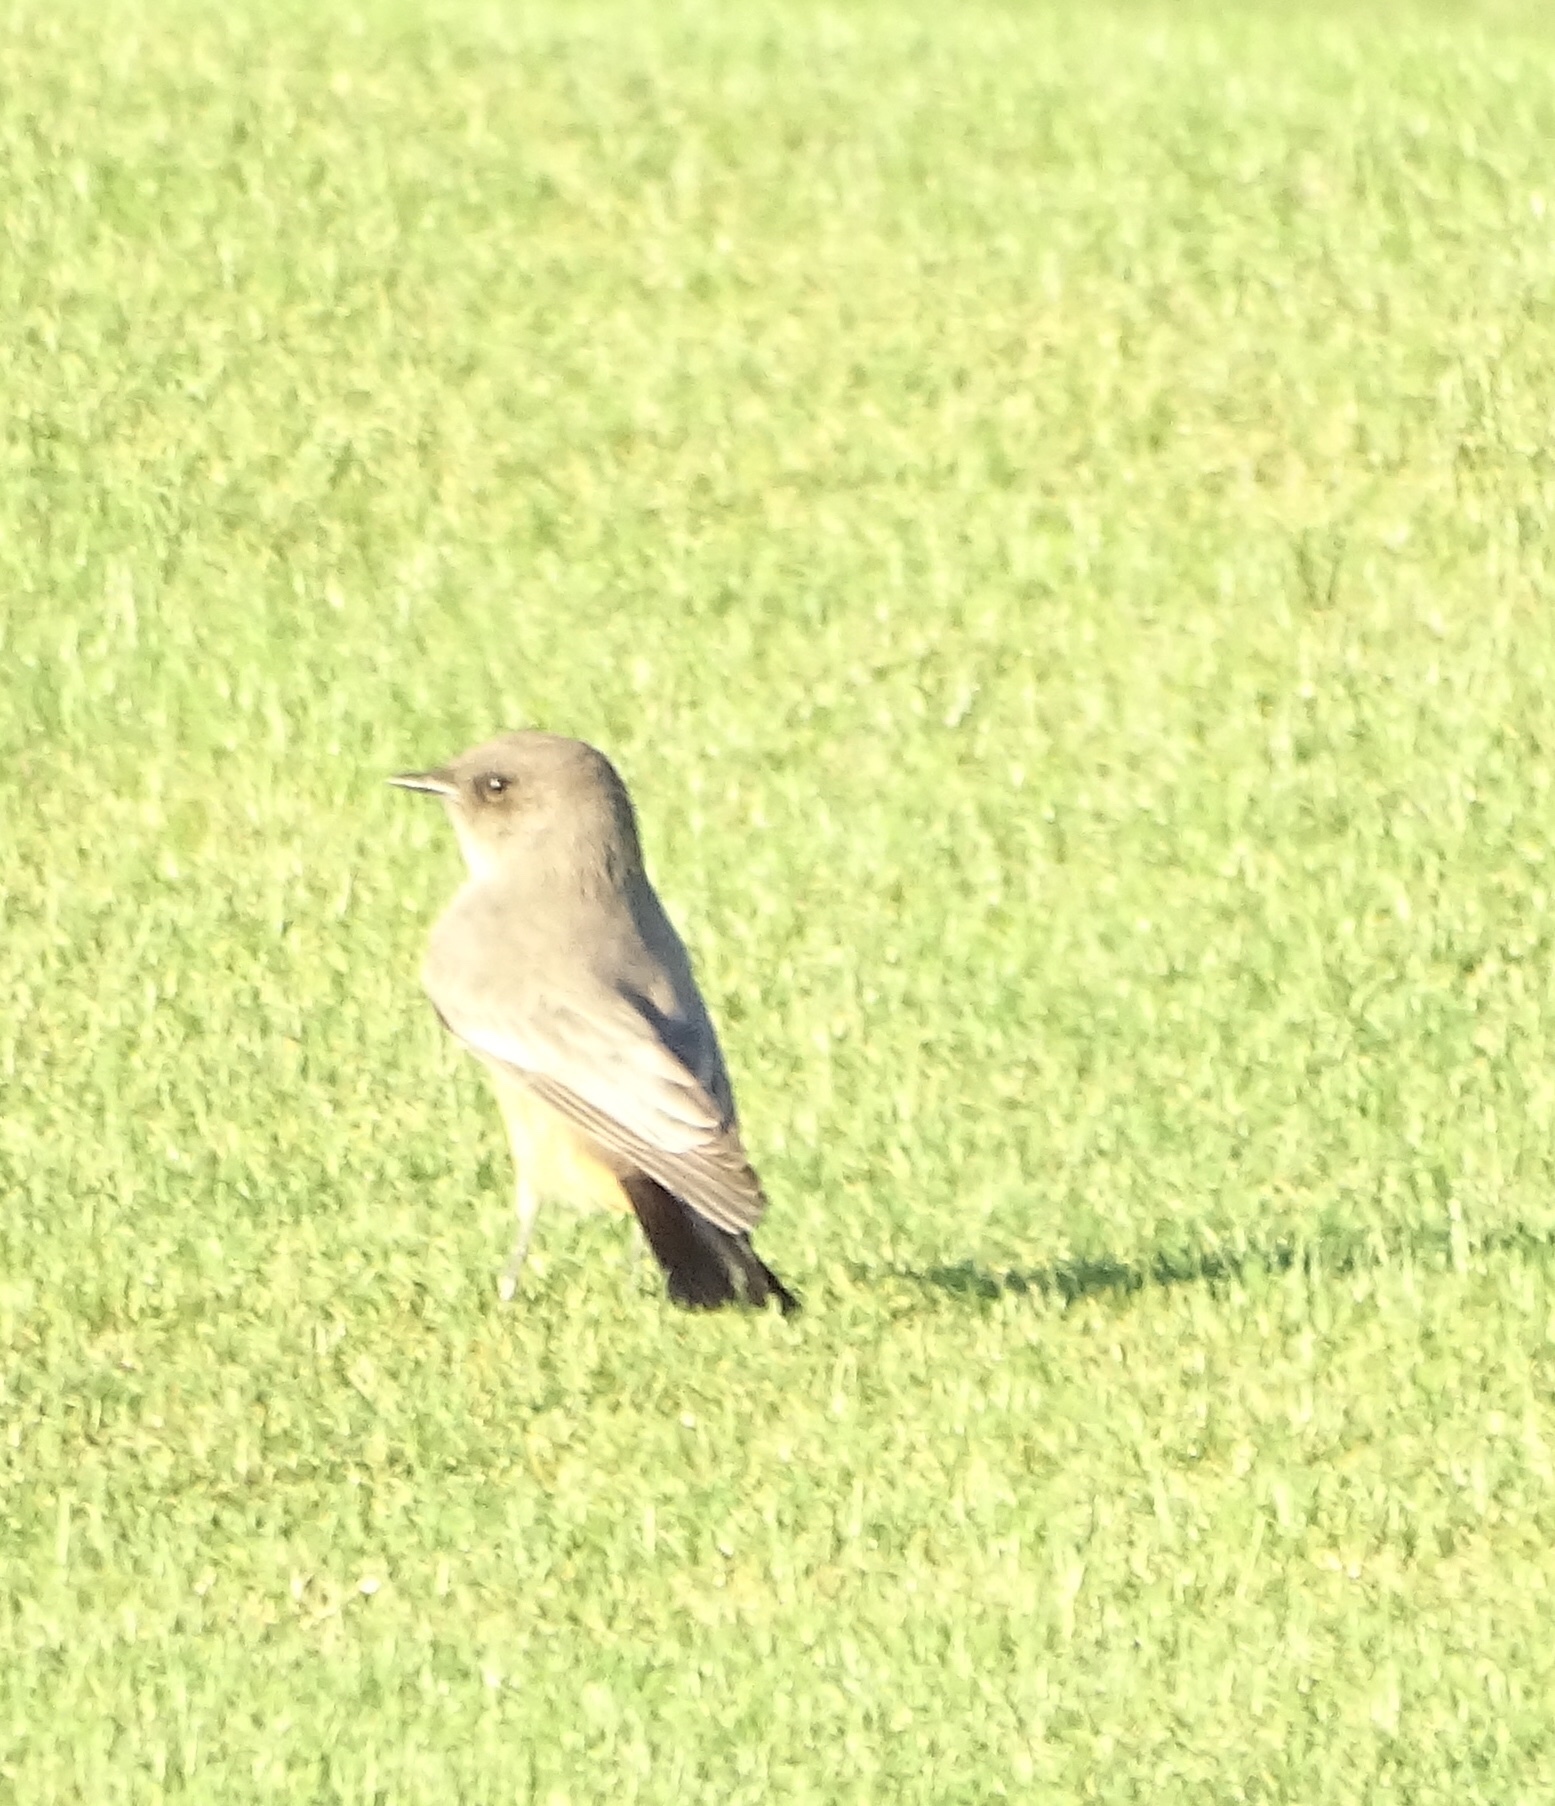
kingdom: Animalia
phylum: Chordata
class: Aves
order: Passeriformes
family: Tyrannidae
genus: Sayornis
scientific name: Sayornis saya
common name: Say's phoebe
